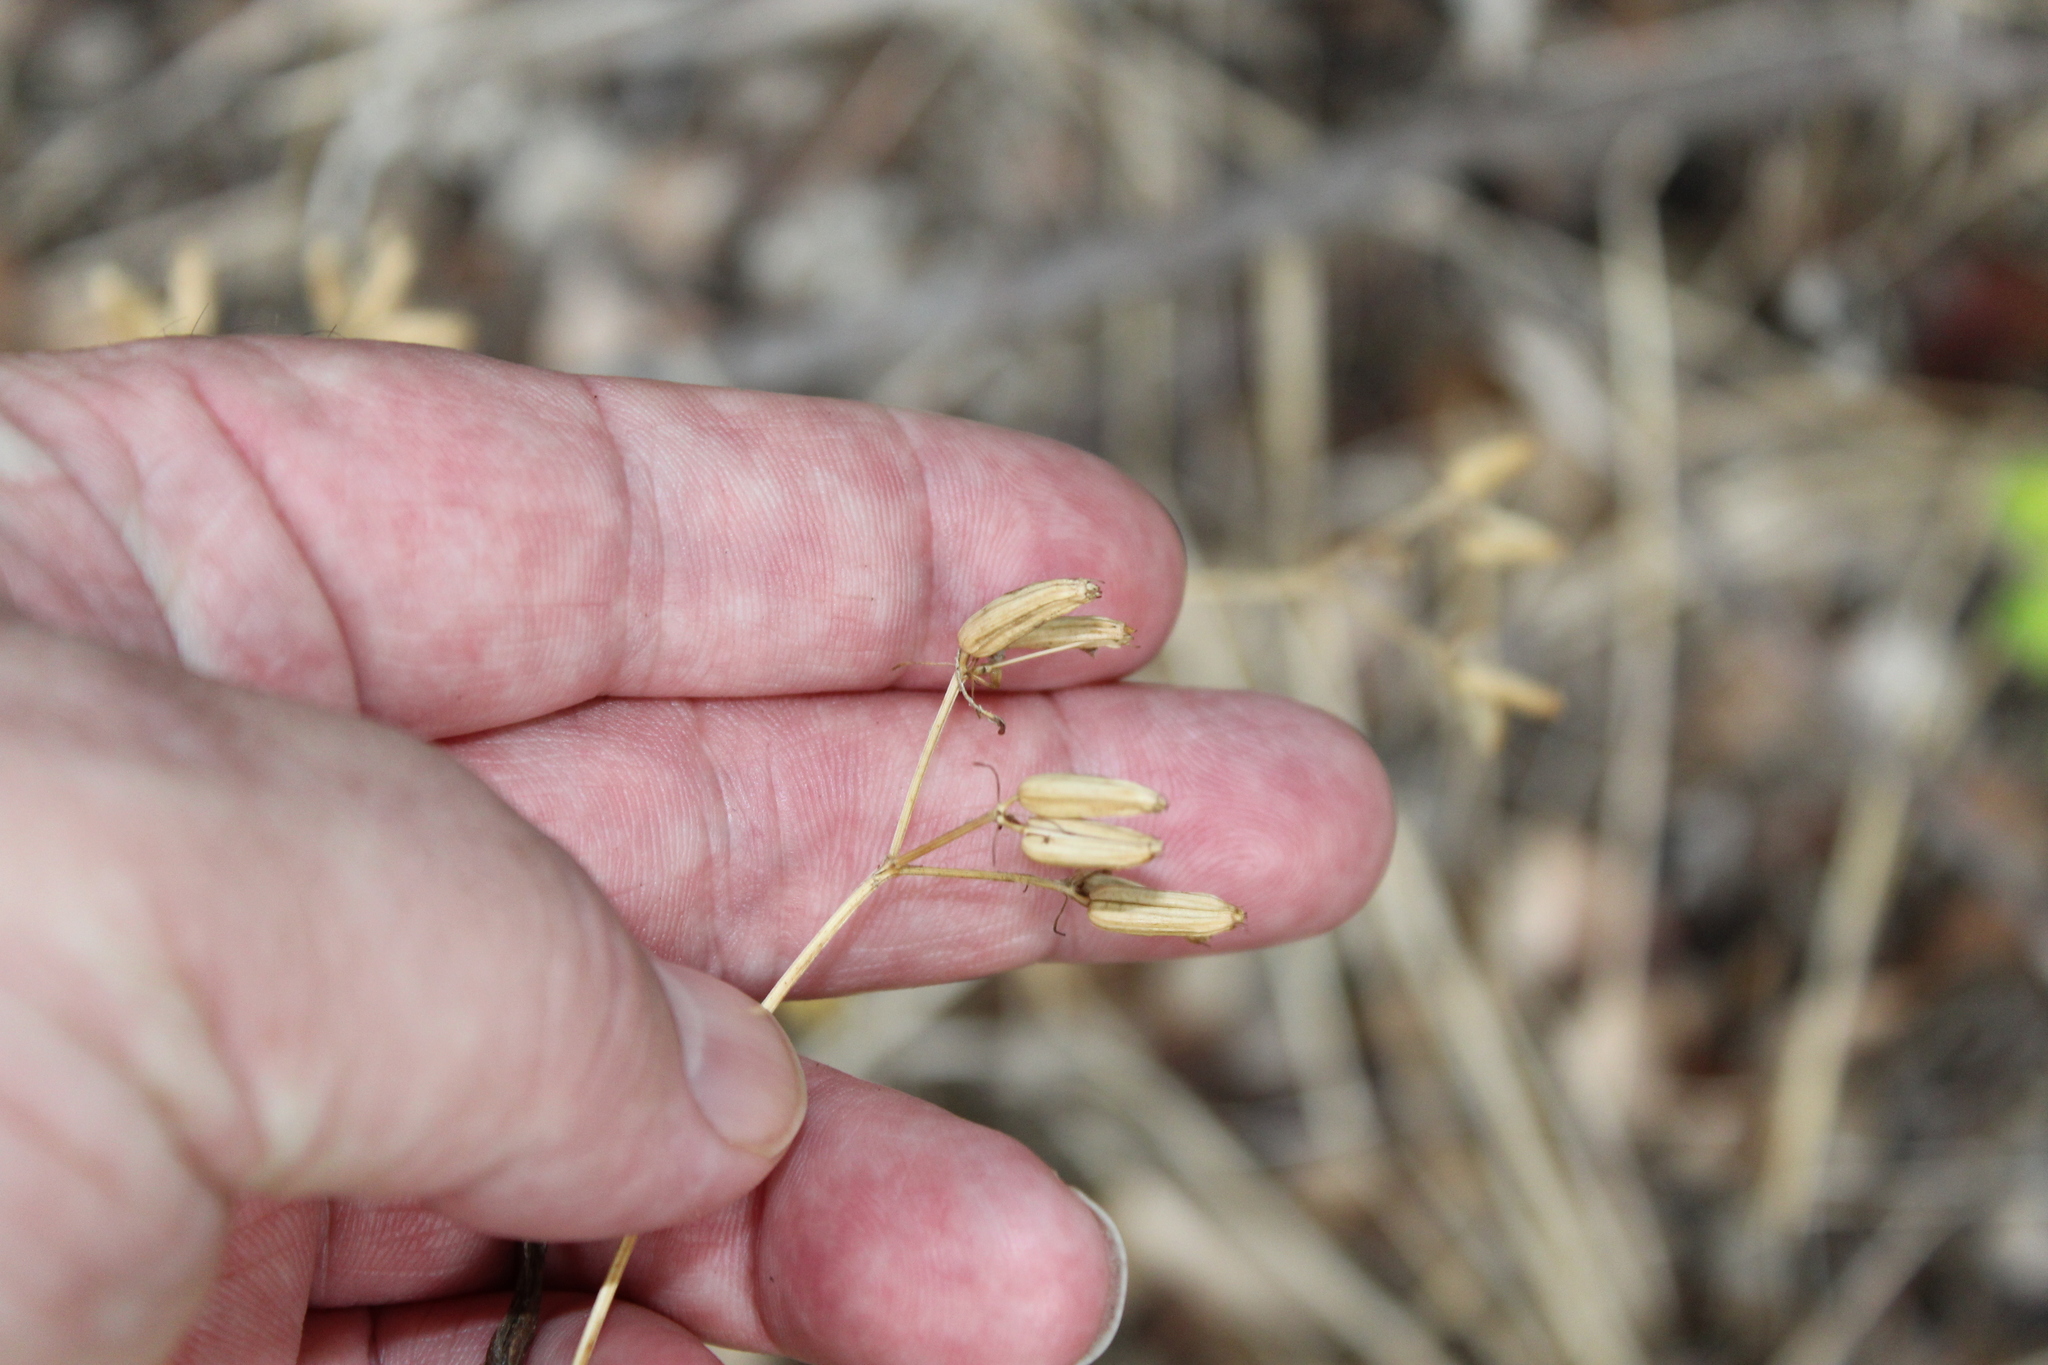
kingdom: Plantae
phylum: Tracheophyta
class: Magnoliopsida
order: Apiales
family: Apiaceae
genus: Polytaenia
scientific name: Polytaenia texana
